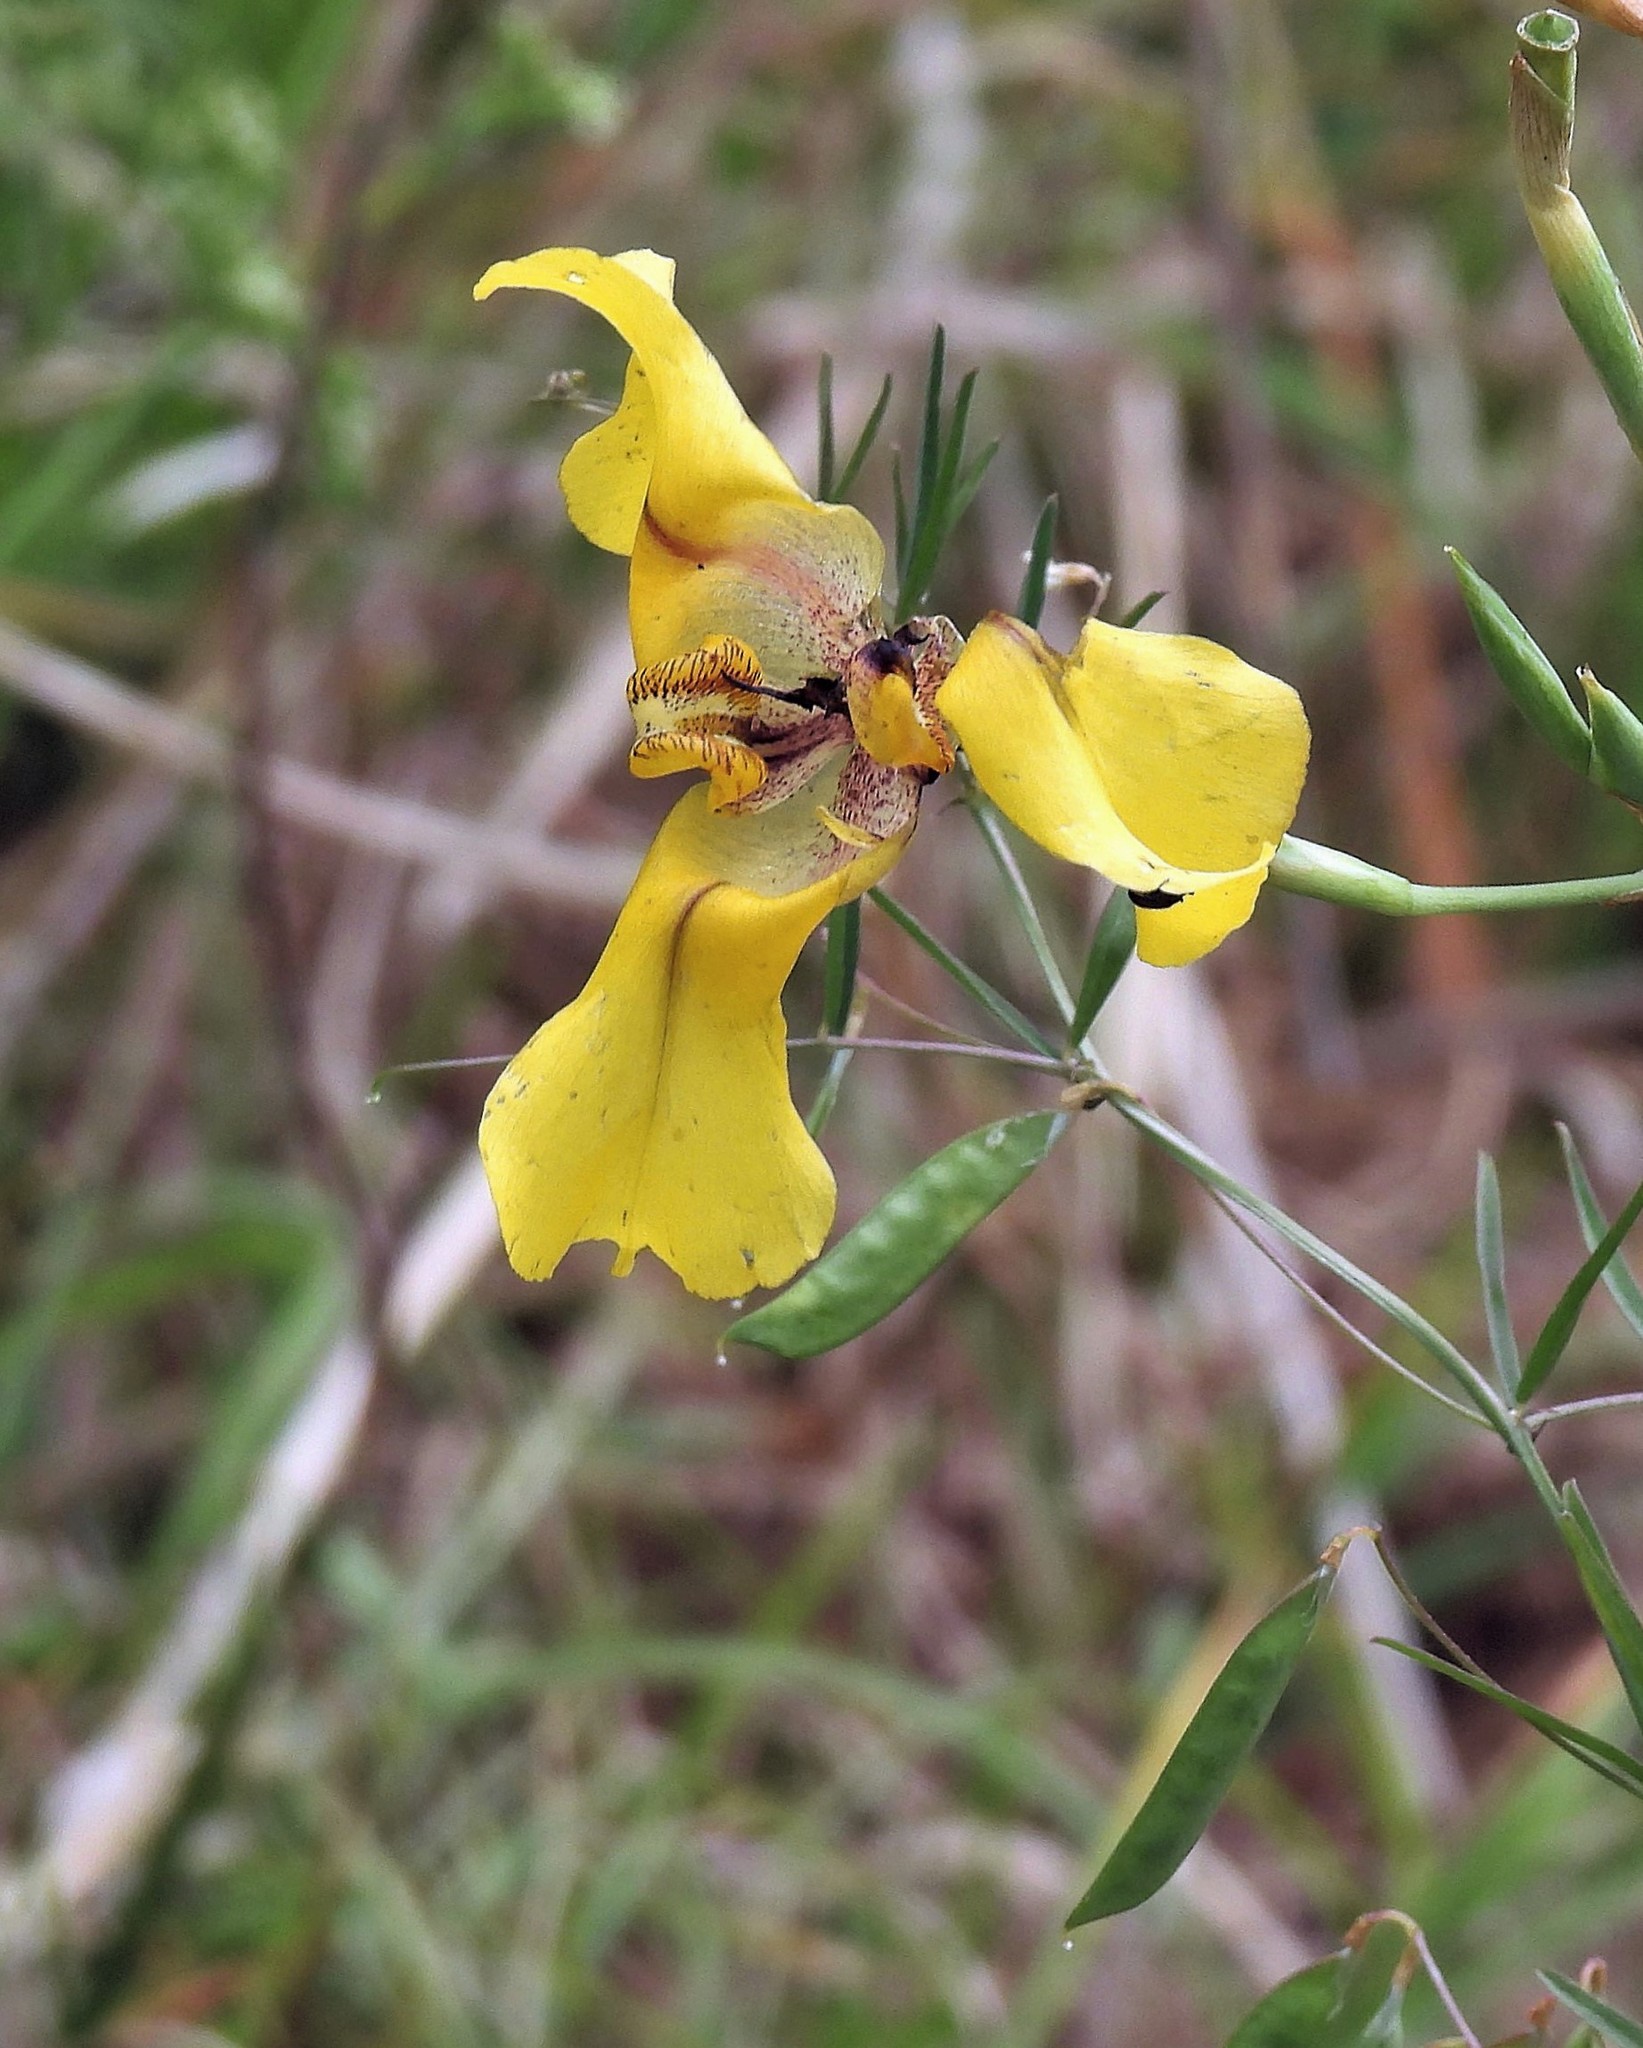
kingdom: Plantae
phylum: Tracheophyta
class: Liliopsida
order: Asparagales
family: Iridaceae
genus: Cypella
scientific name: Cypella herbertii
